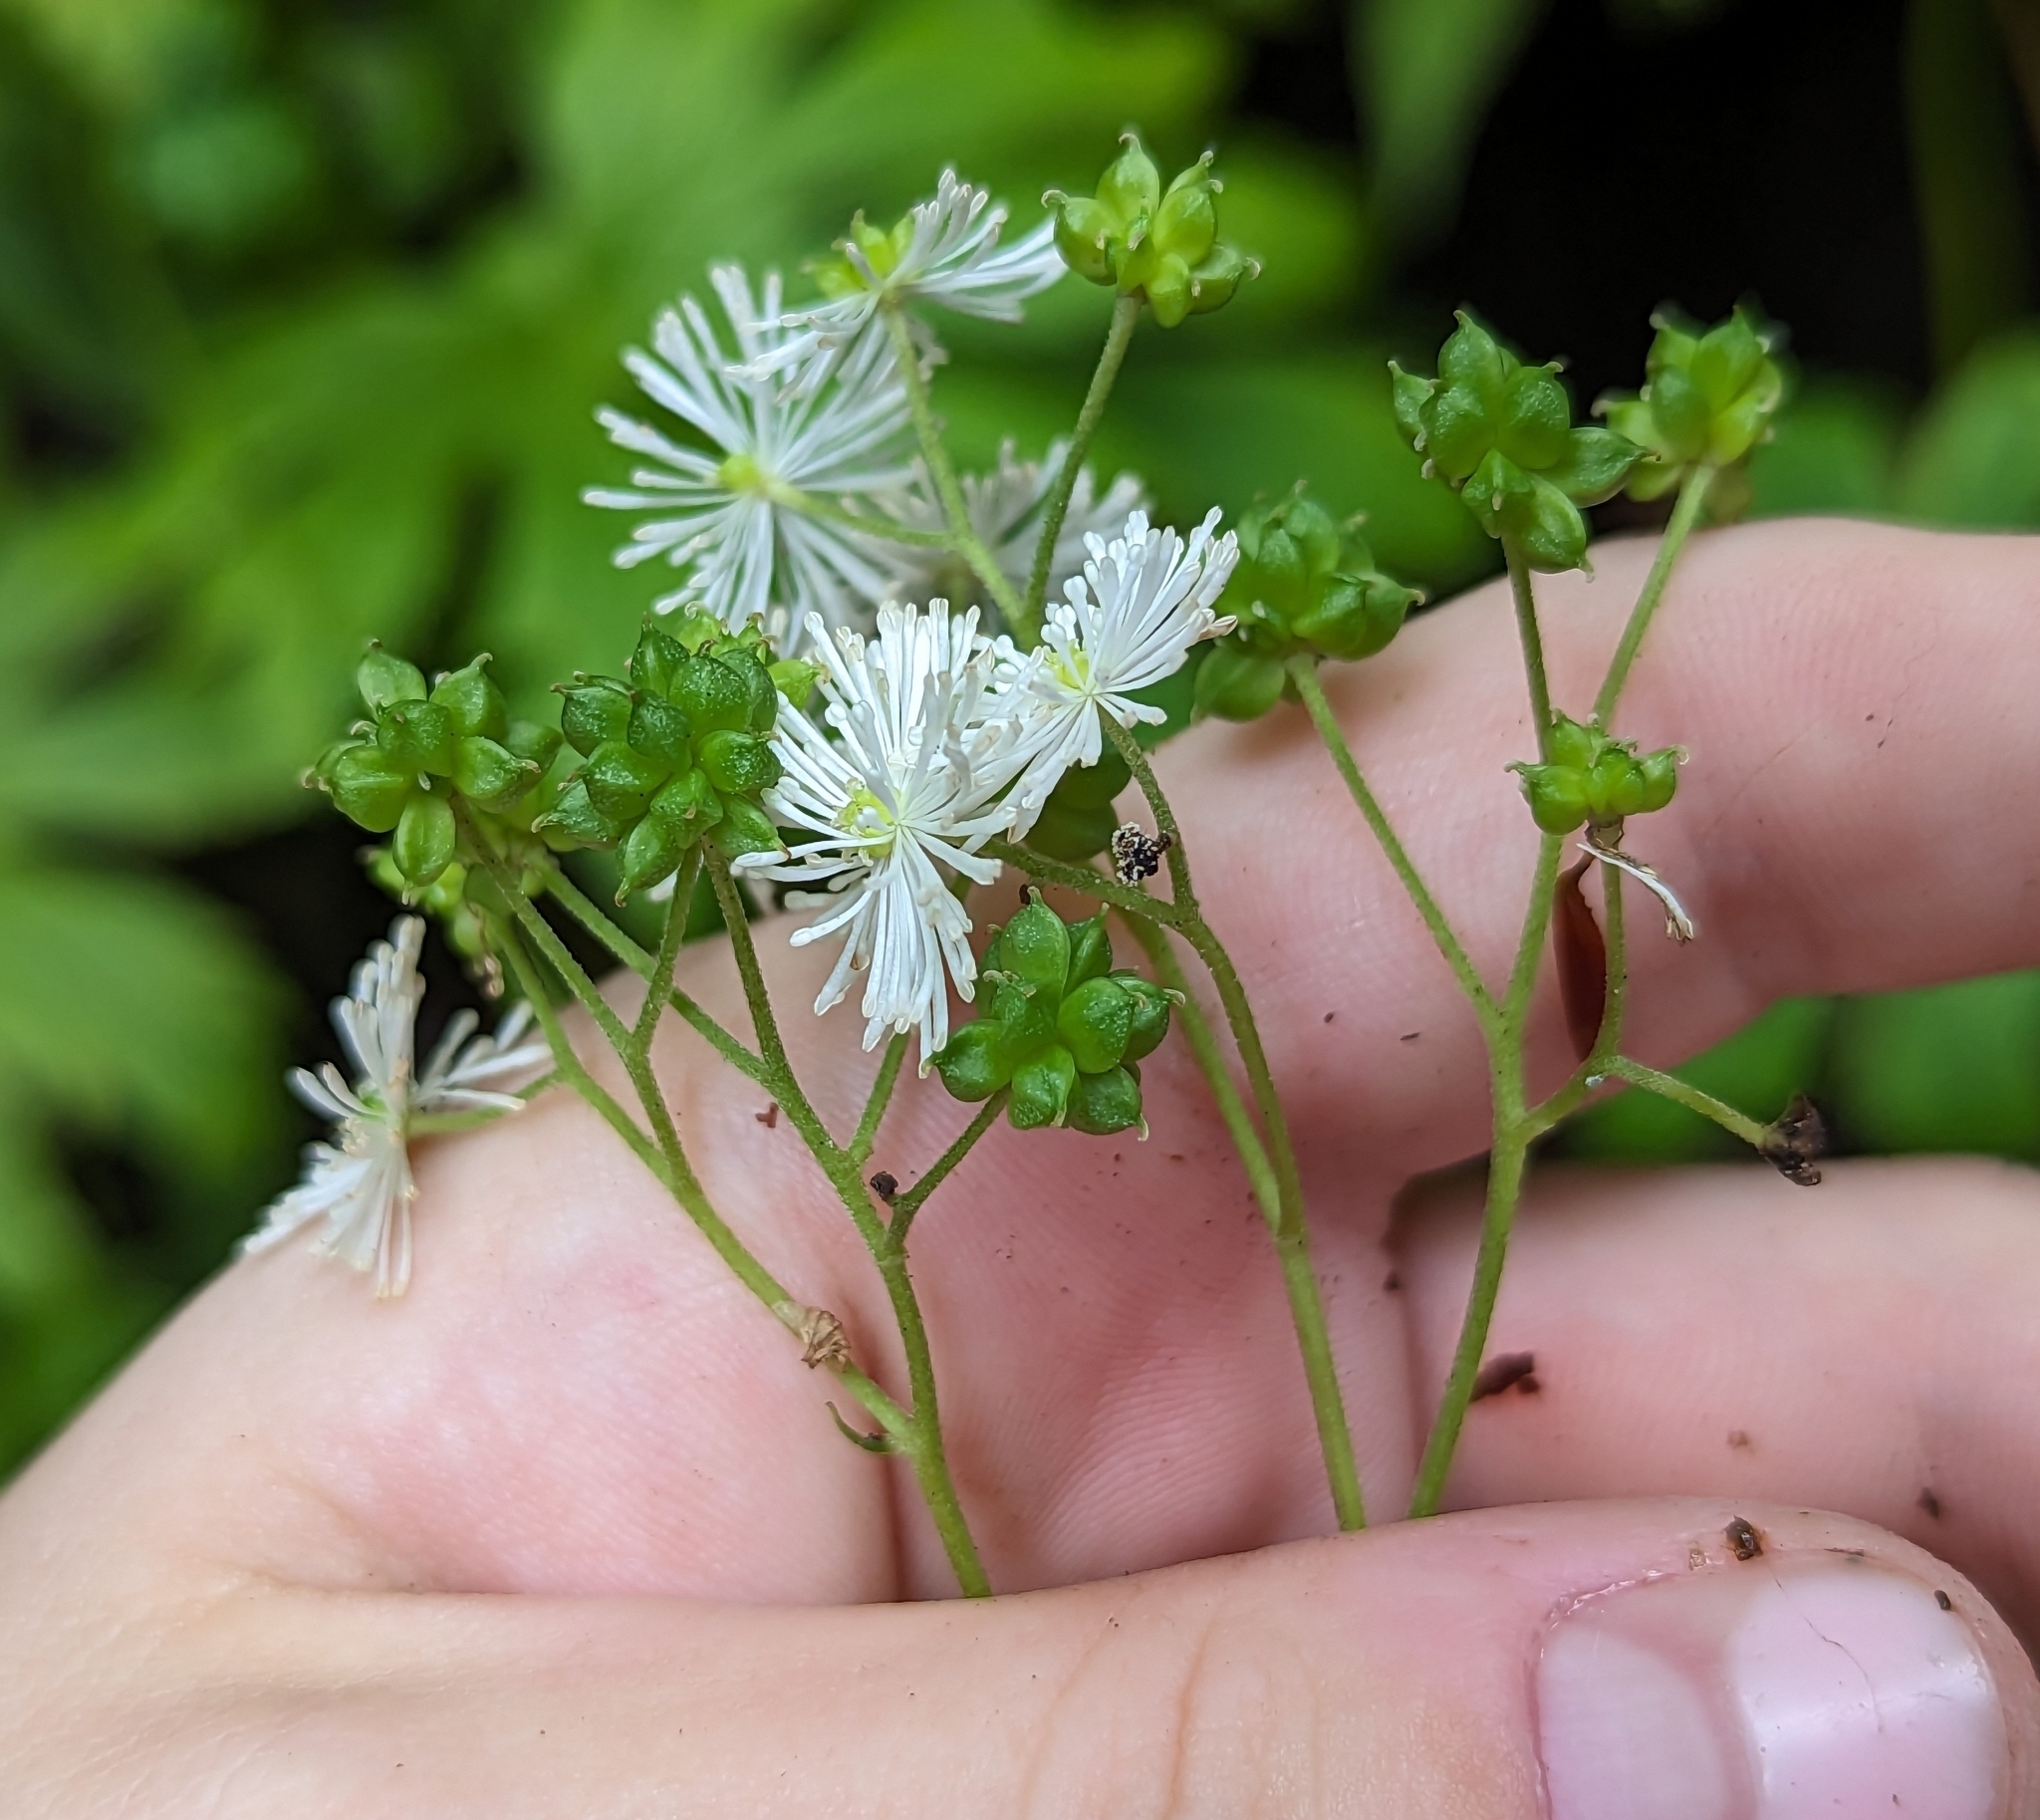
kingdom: Plantae
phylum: Tracheophyta
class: Magnoliopsida
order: Ranunculales
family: Ranunculaceae
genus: Trautvetteria
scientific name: Trautvetteria carolinensis
